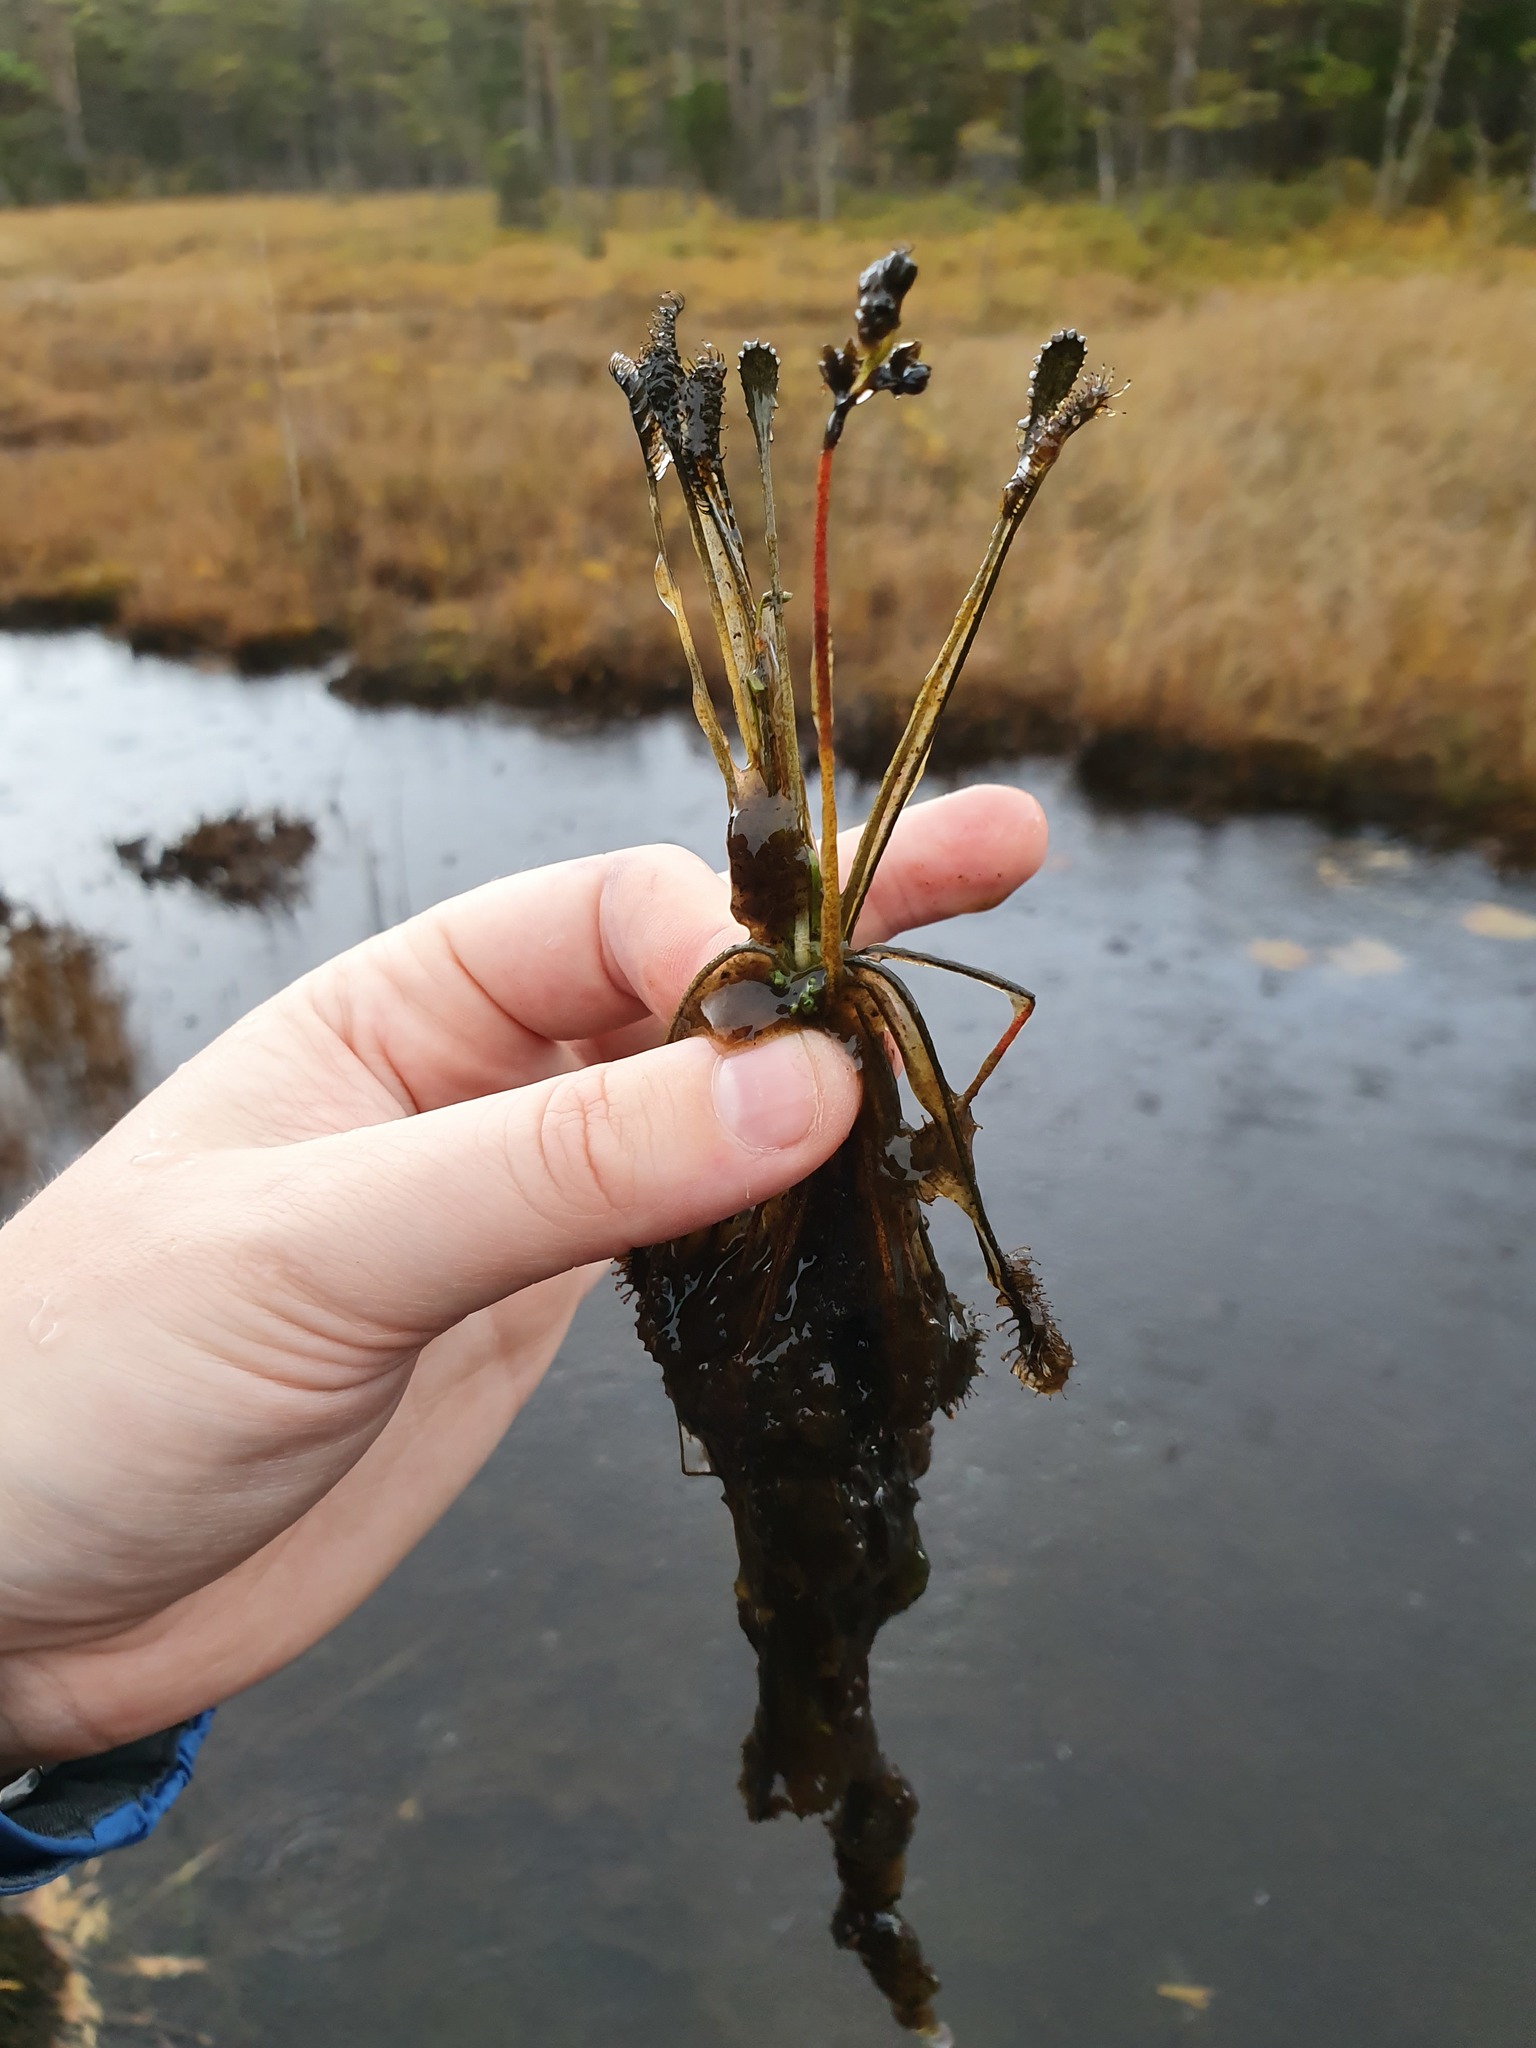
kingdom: Plantae
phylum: Tracheophyta
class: Magnoliopsida
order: Caryophyllales
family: Droseraceae
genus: Drosera
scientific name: Drosera intermedia
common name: Oblong-leaved sundew
